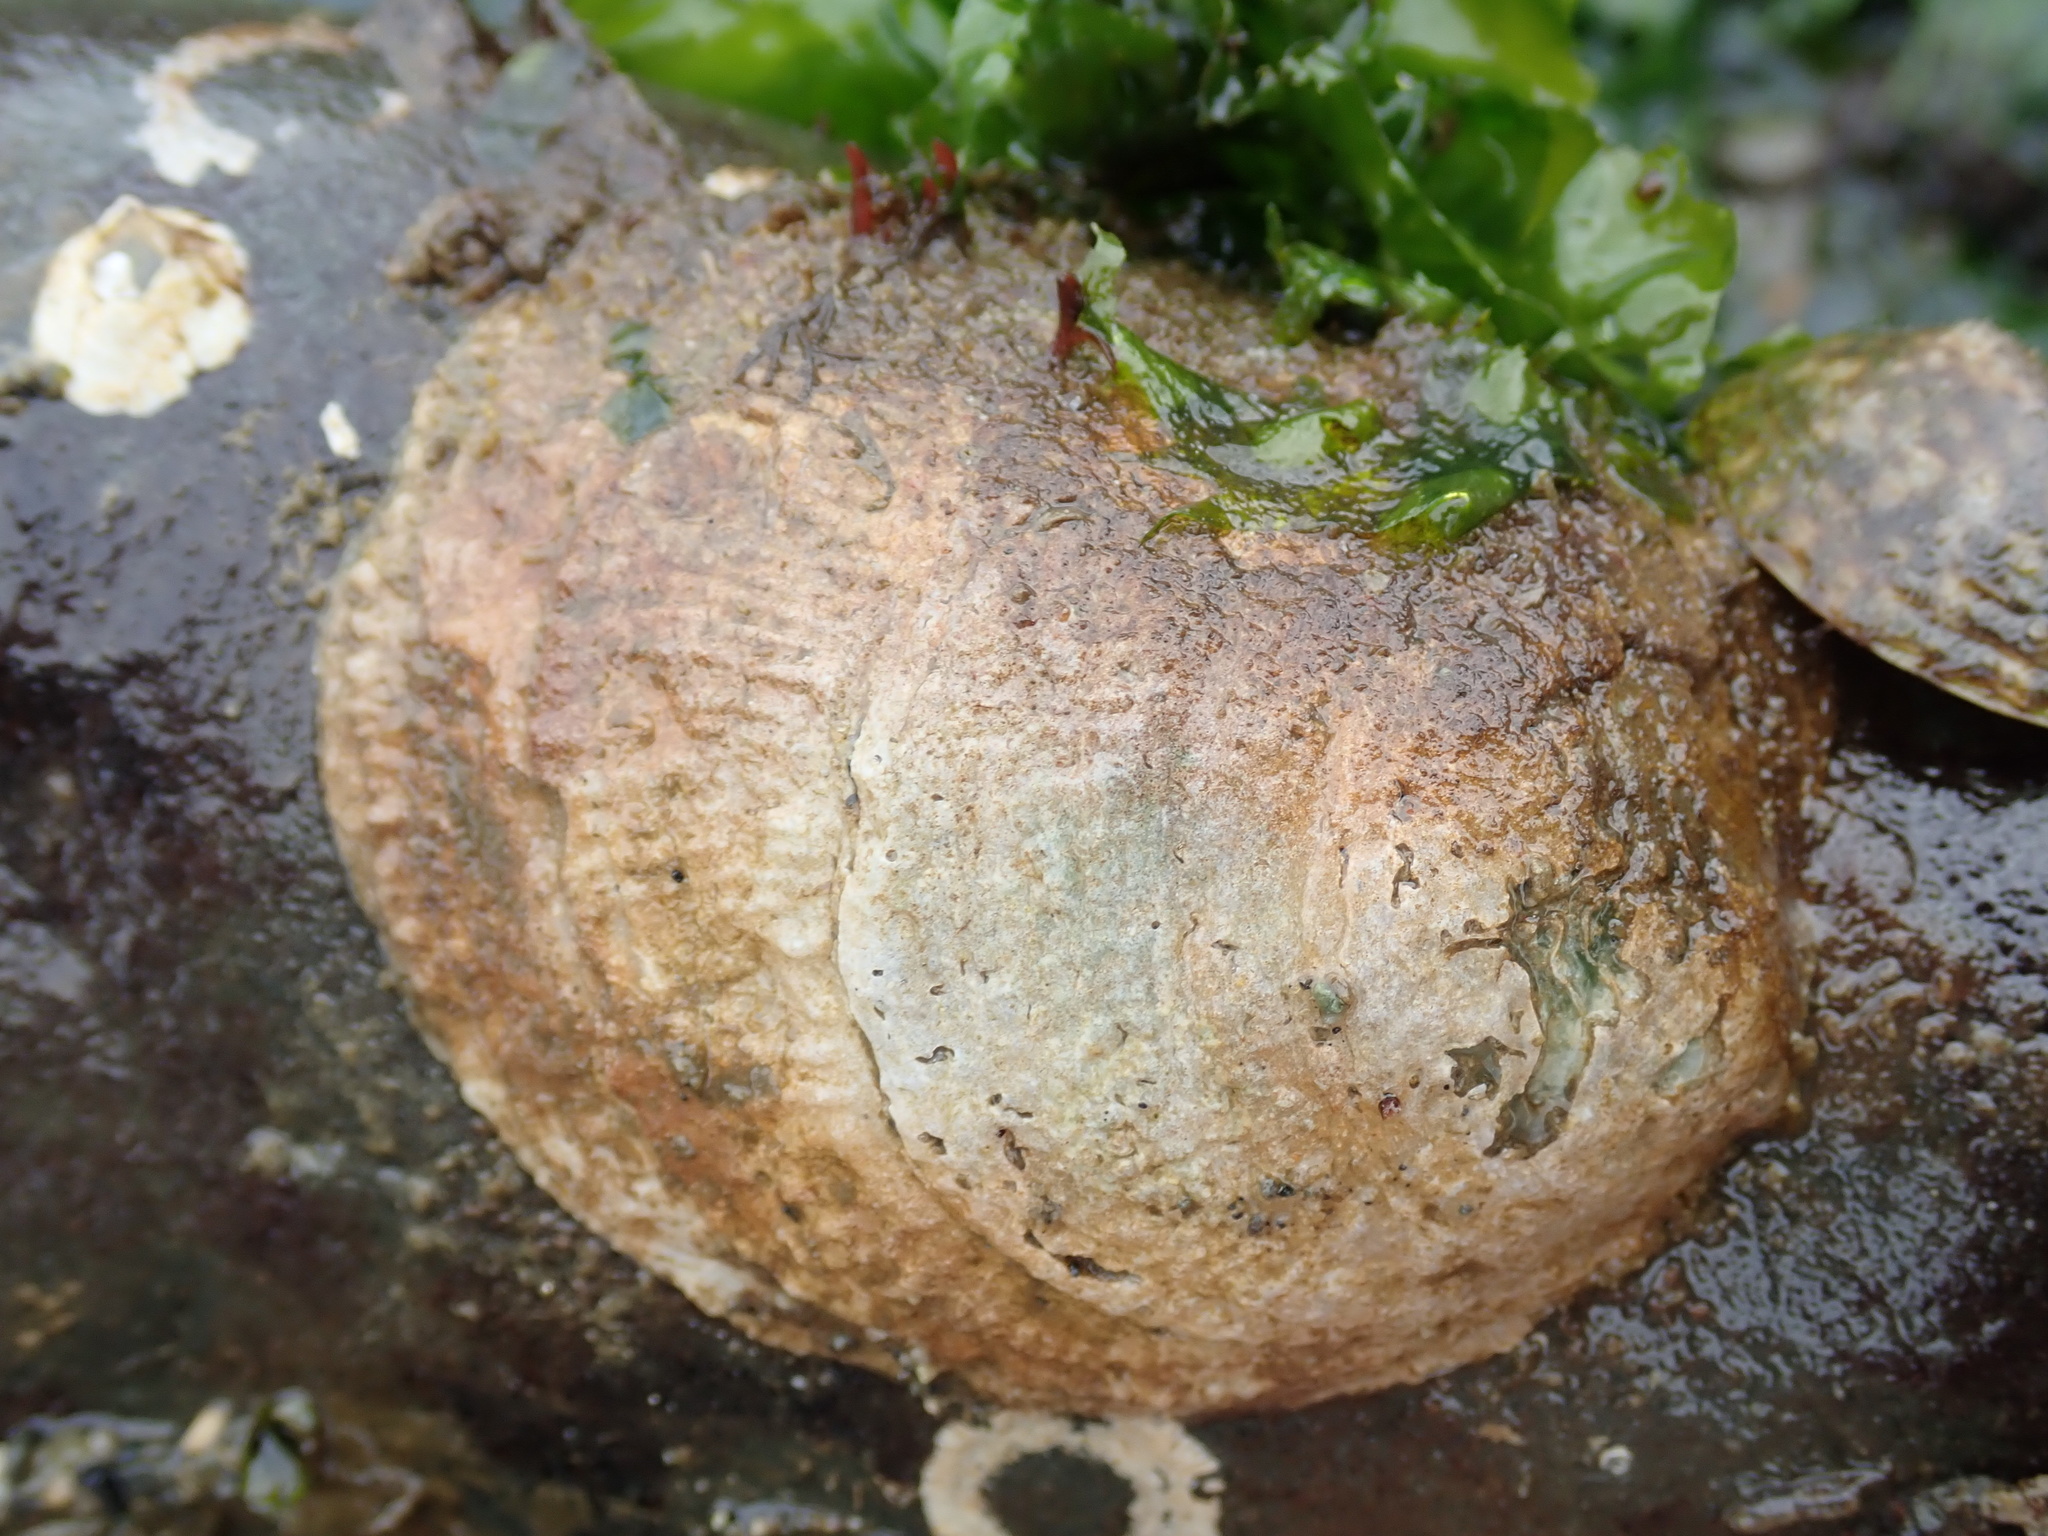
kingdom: Animalia
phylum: Mollusca
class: Bivalvia
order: Pectinida
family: Anomiidae
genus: Pododesmus
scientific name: Pododesmus macrochisma
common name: Alaska jingle
